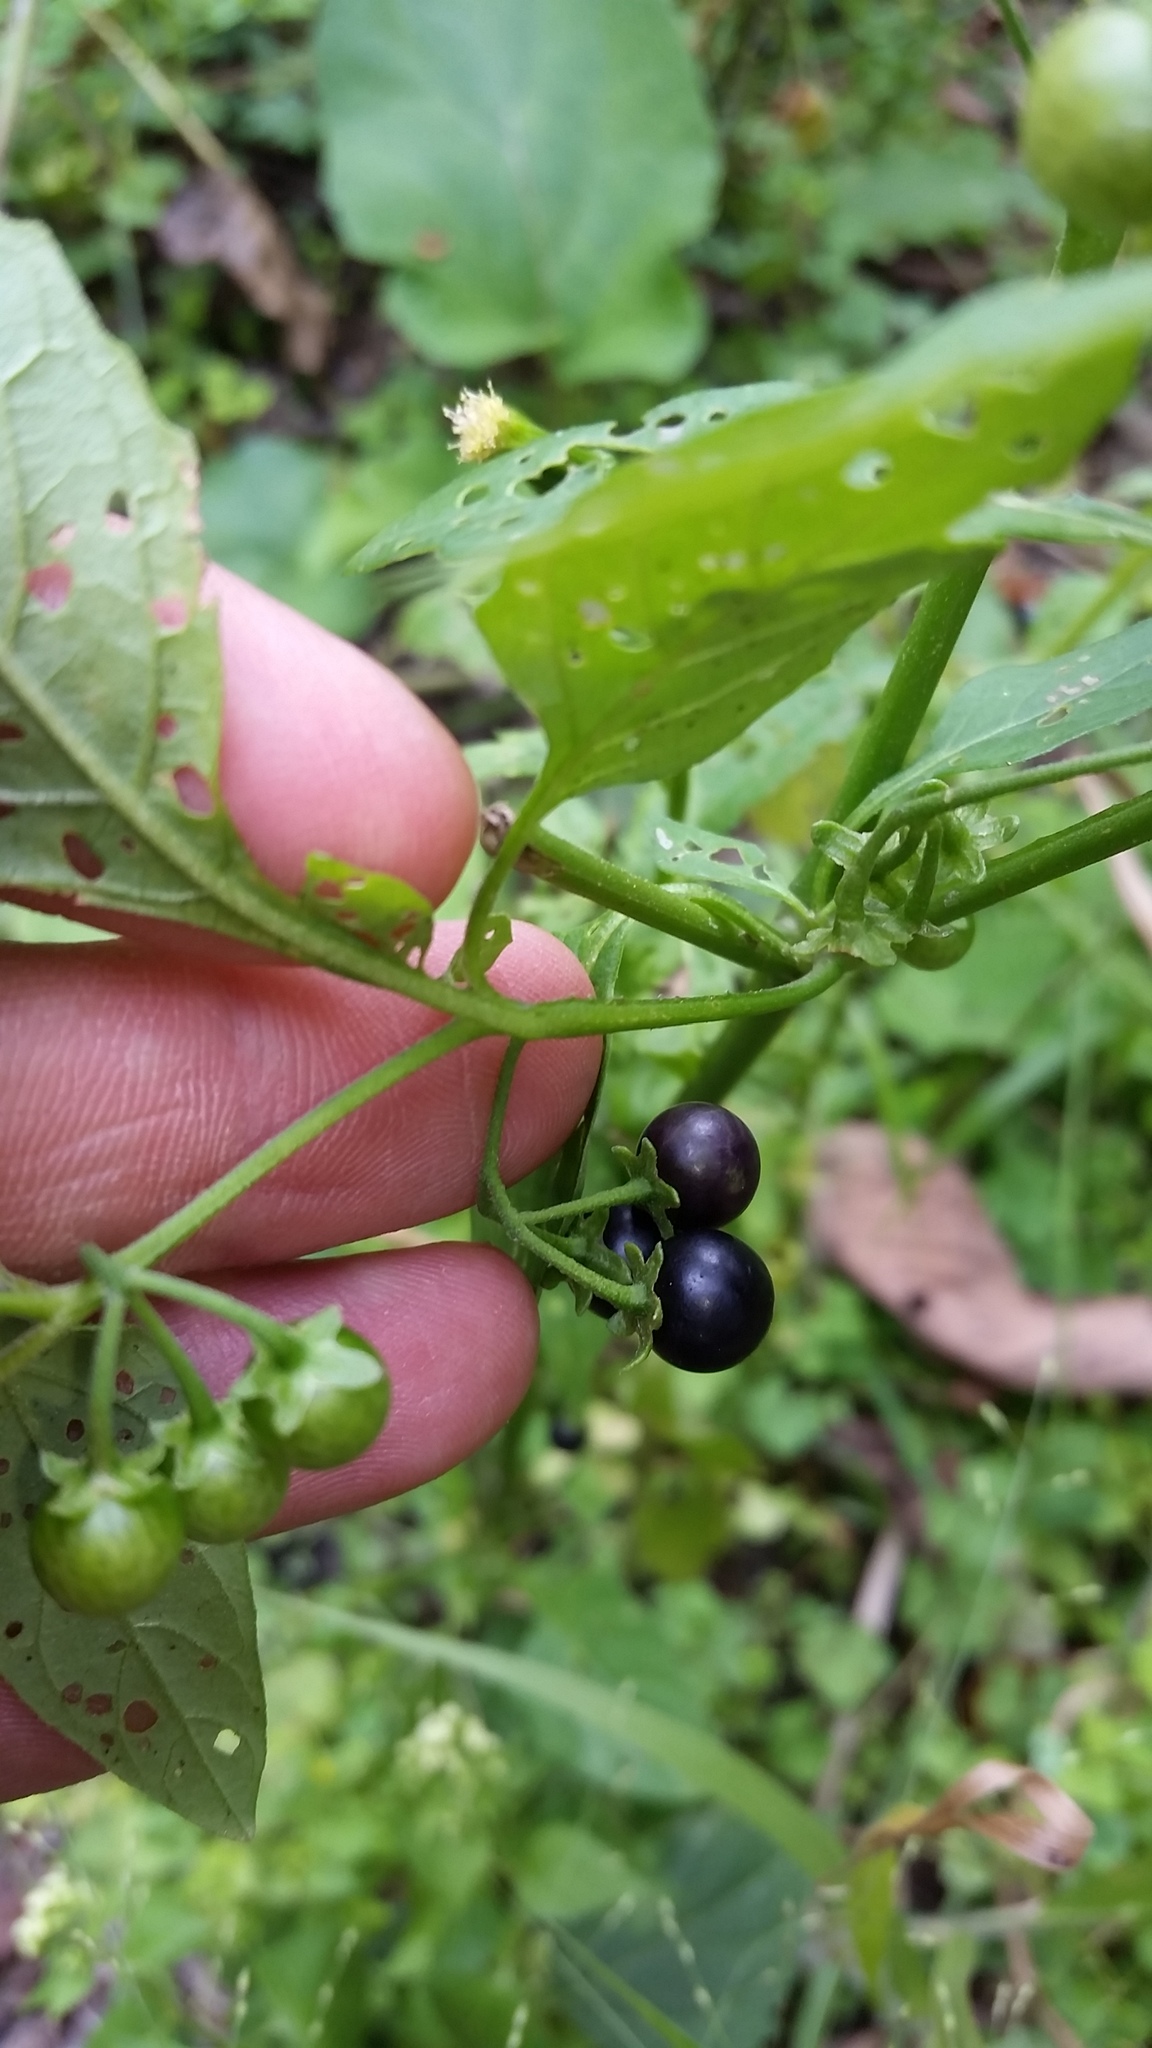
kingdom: Plantae
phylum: Tracheophyta
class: Magnoliopsida
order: Solanales
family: Solanaceae
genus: Solanum
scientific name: Solanum emulans
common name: Eastern black nightshade
